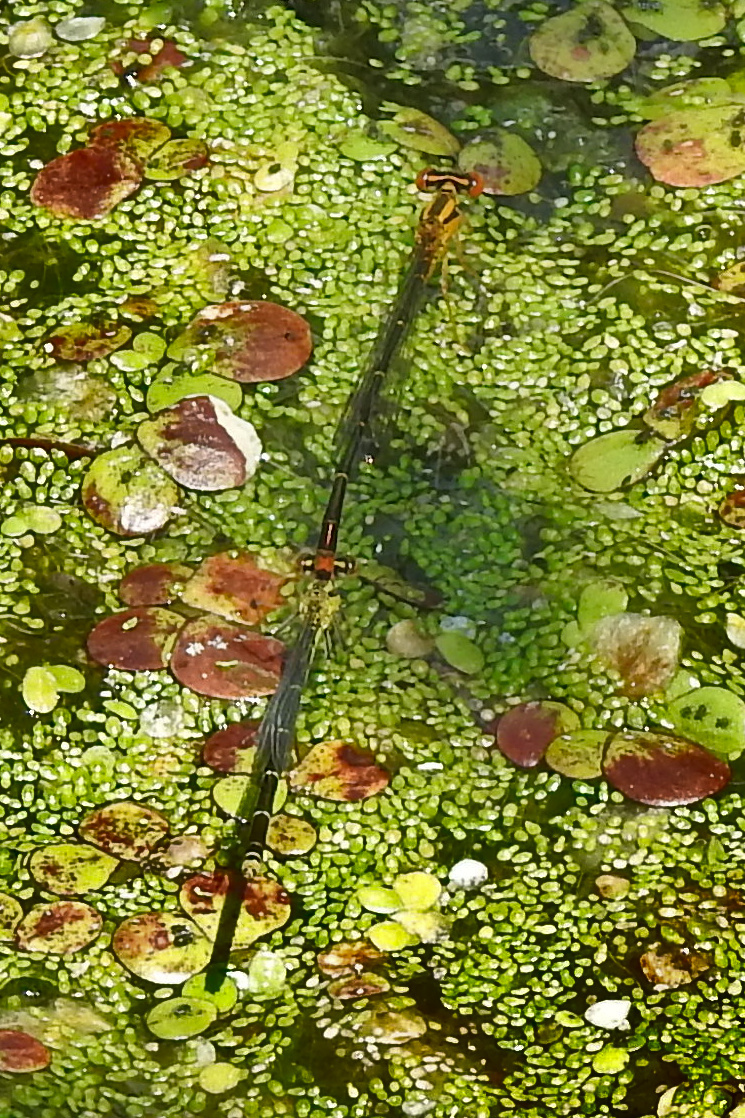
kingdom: Animalia
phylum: Arthropoda
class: Insecta
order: Odonata
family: Coenagrionidae
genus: Enallagma
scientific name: Enallagma signatum
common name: Orange bluet
